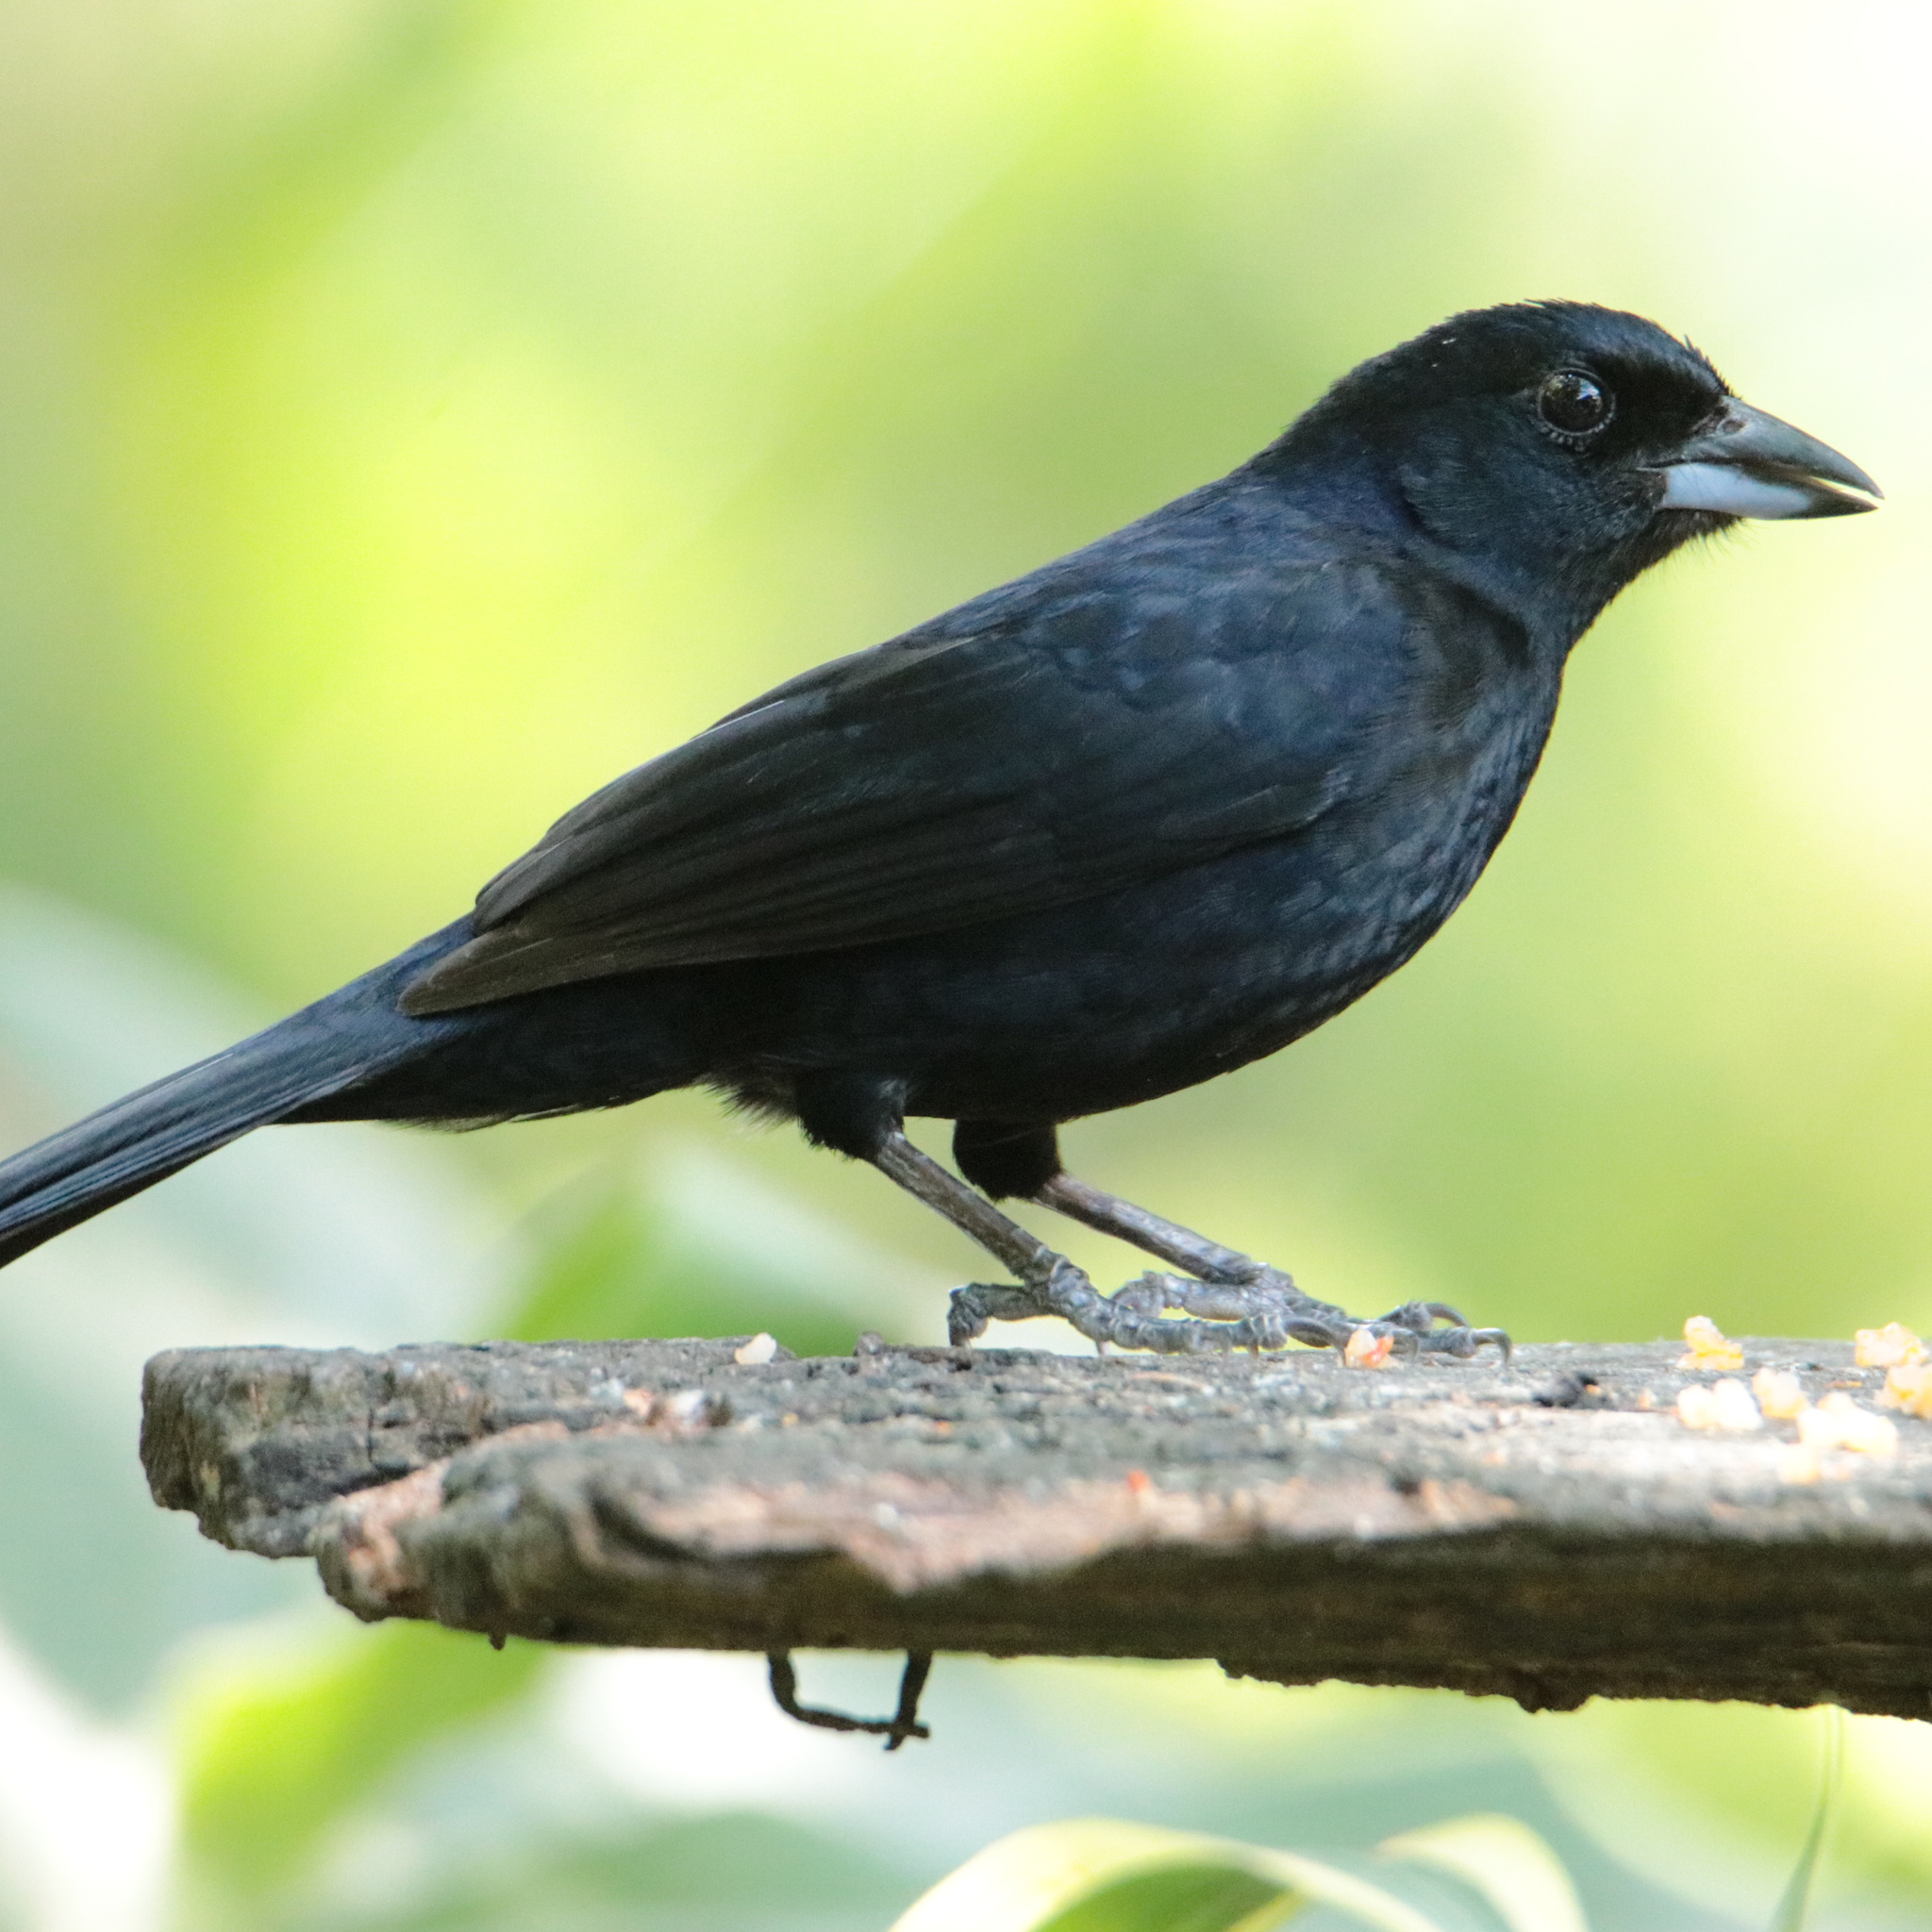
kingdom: Animalia
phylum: Chordata
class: Aves
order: Passeriformes
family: Thraupidae
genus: Tachyphonus
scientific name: Tachyphonus rufus
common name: White-lined tanager
